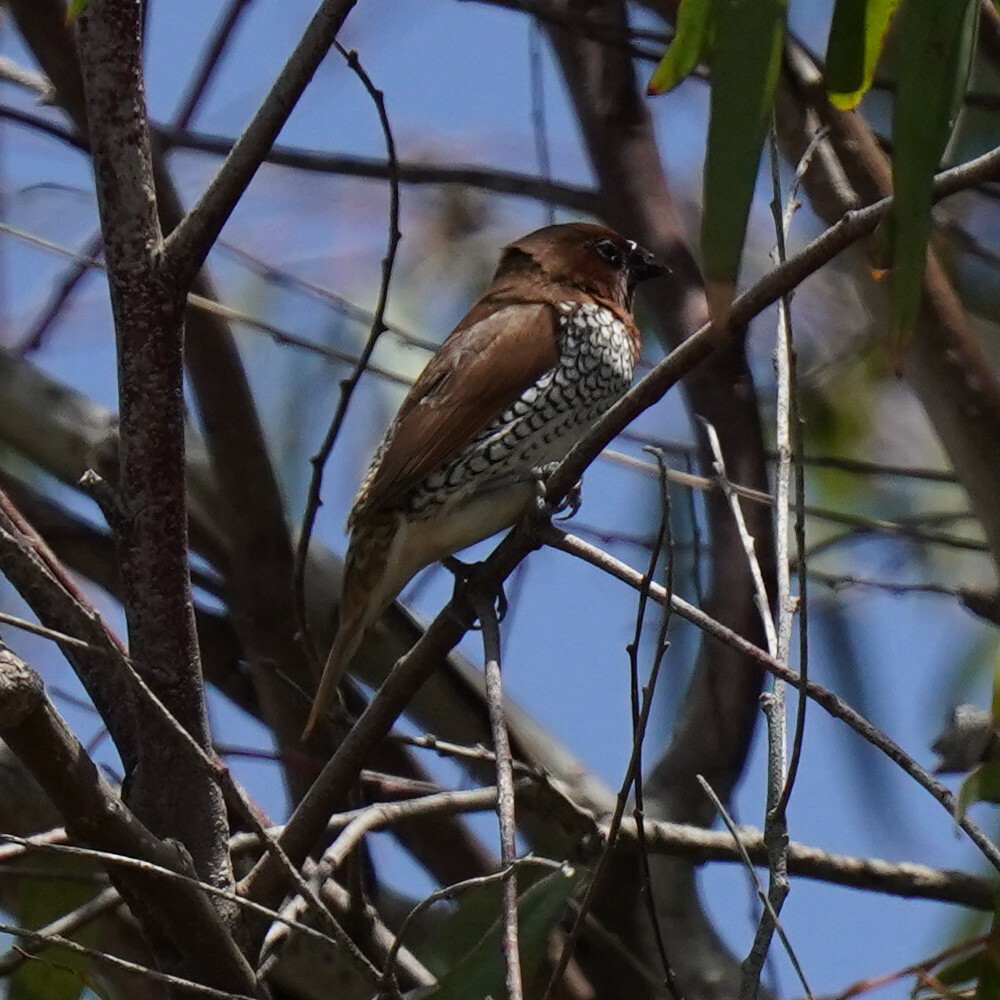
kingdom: Animalia
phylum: Chordata
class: Aves
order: Passeriformes
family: Estrildidae
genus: Lonchura
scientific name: Lonchura punctulata
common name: Scaly-breasted munia
